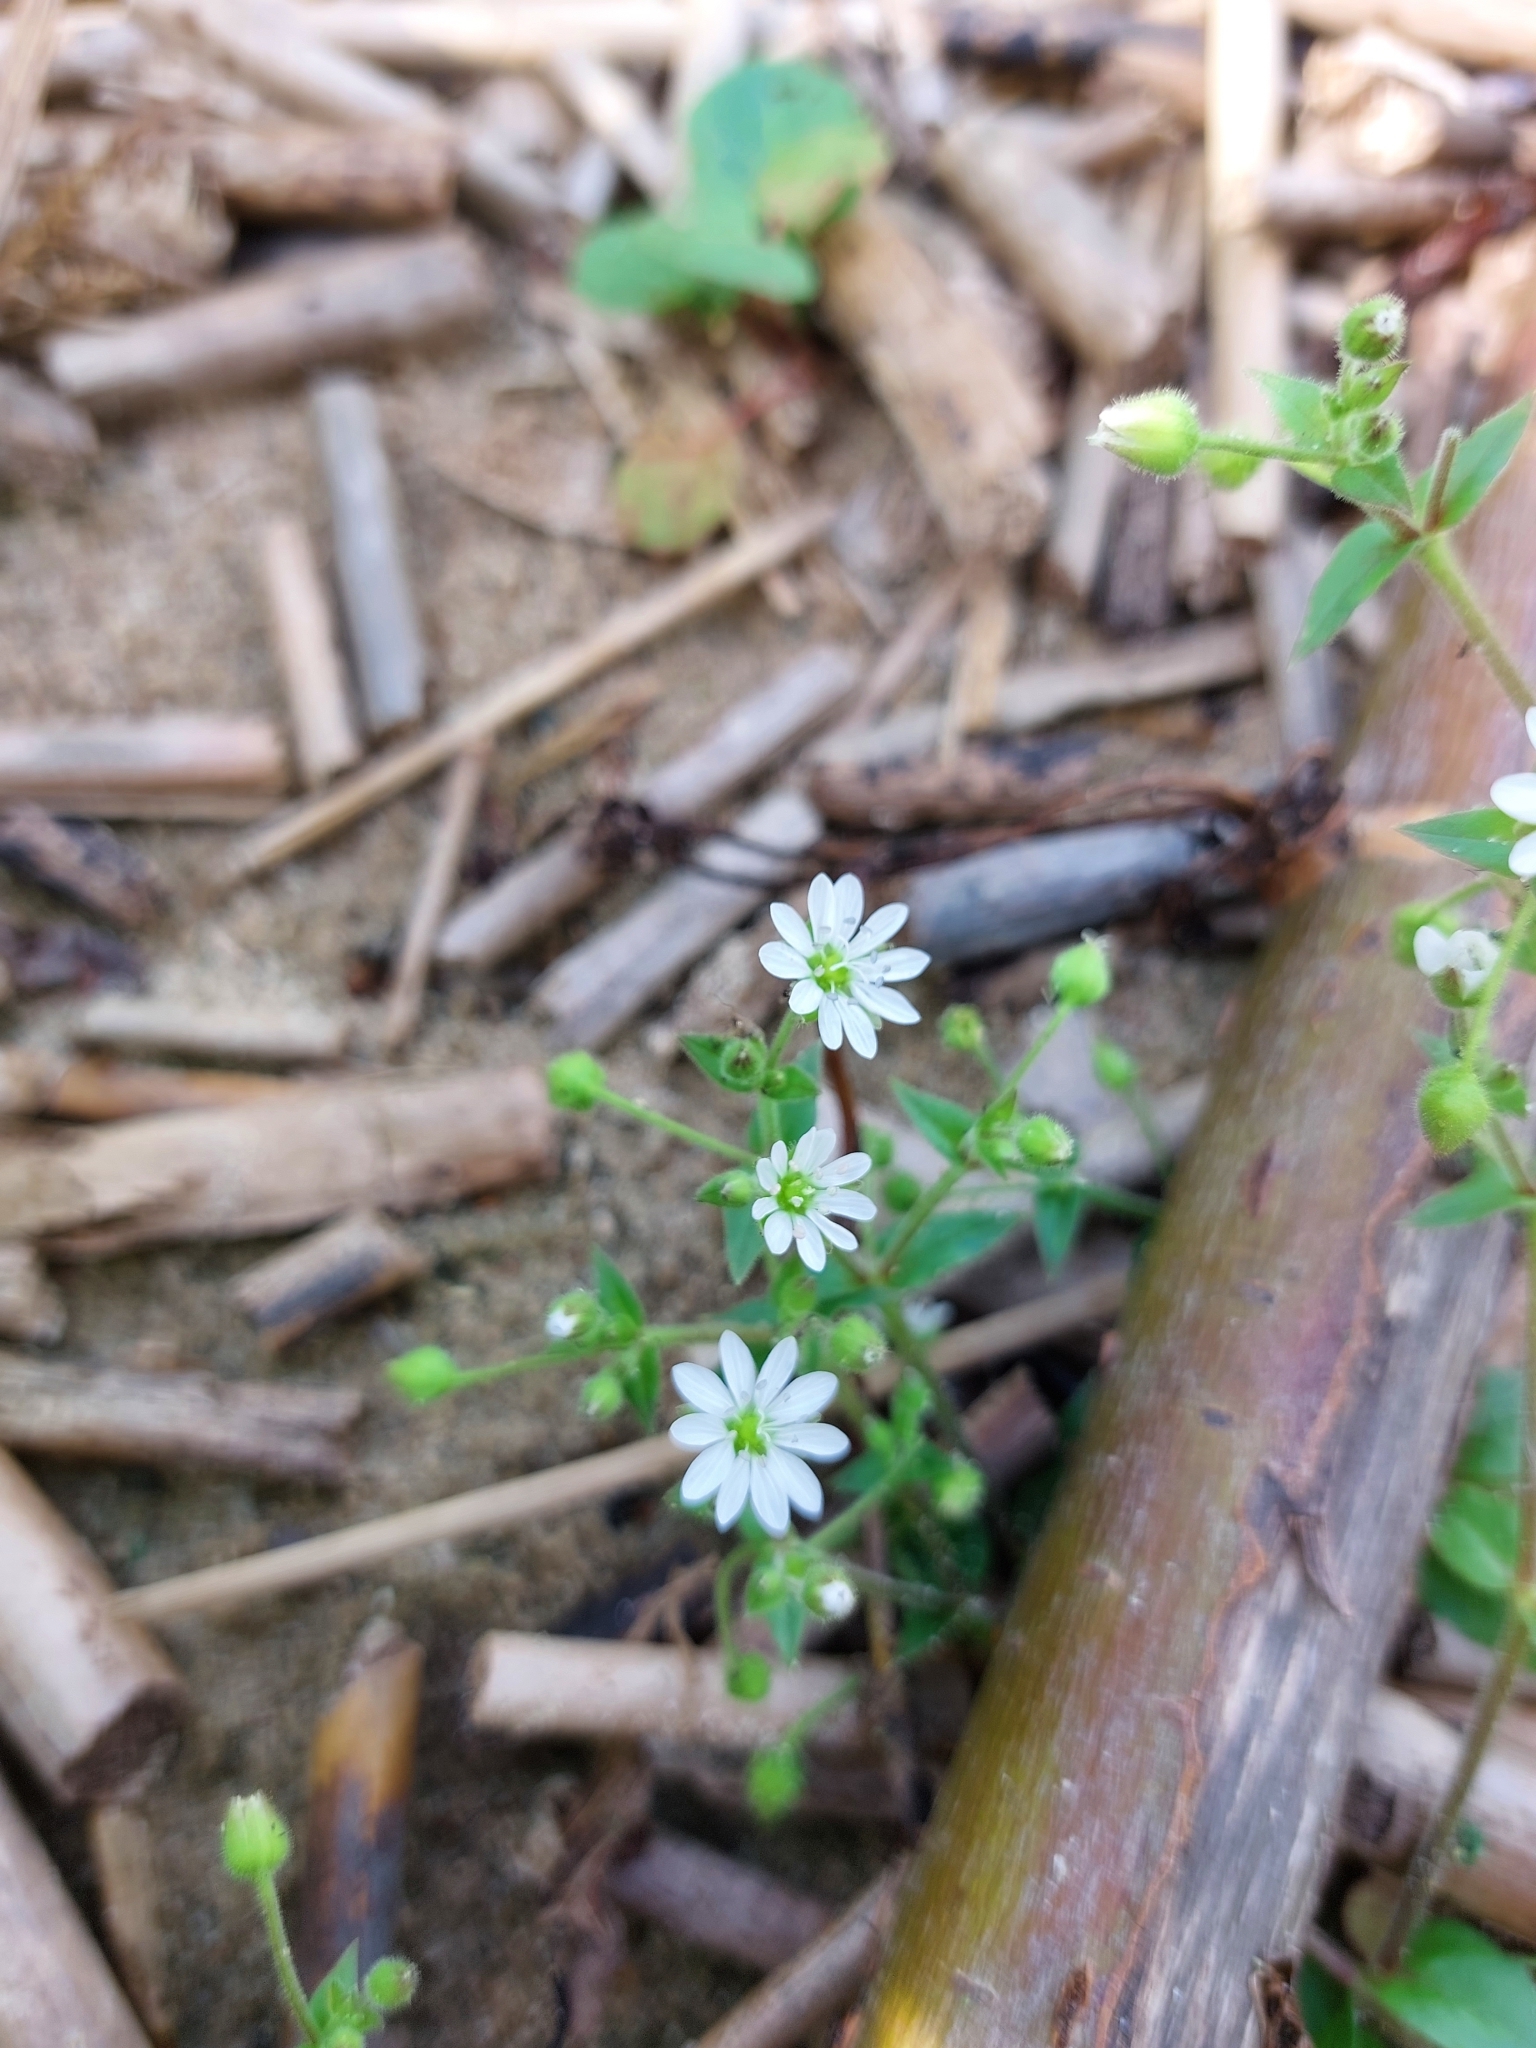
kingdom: Plantae
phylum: Tracheophyta
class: Magnoliopsida
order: Caryophyllales
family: Caryophyllaceae
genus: Stellaria
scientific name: Stellaria aquatica
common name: Water chickweed
